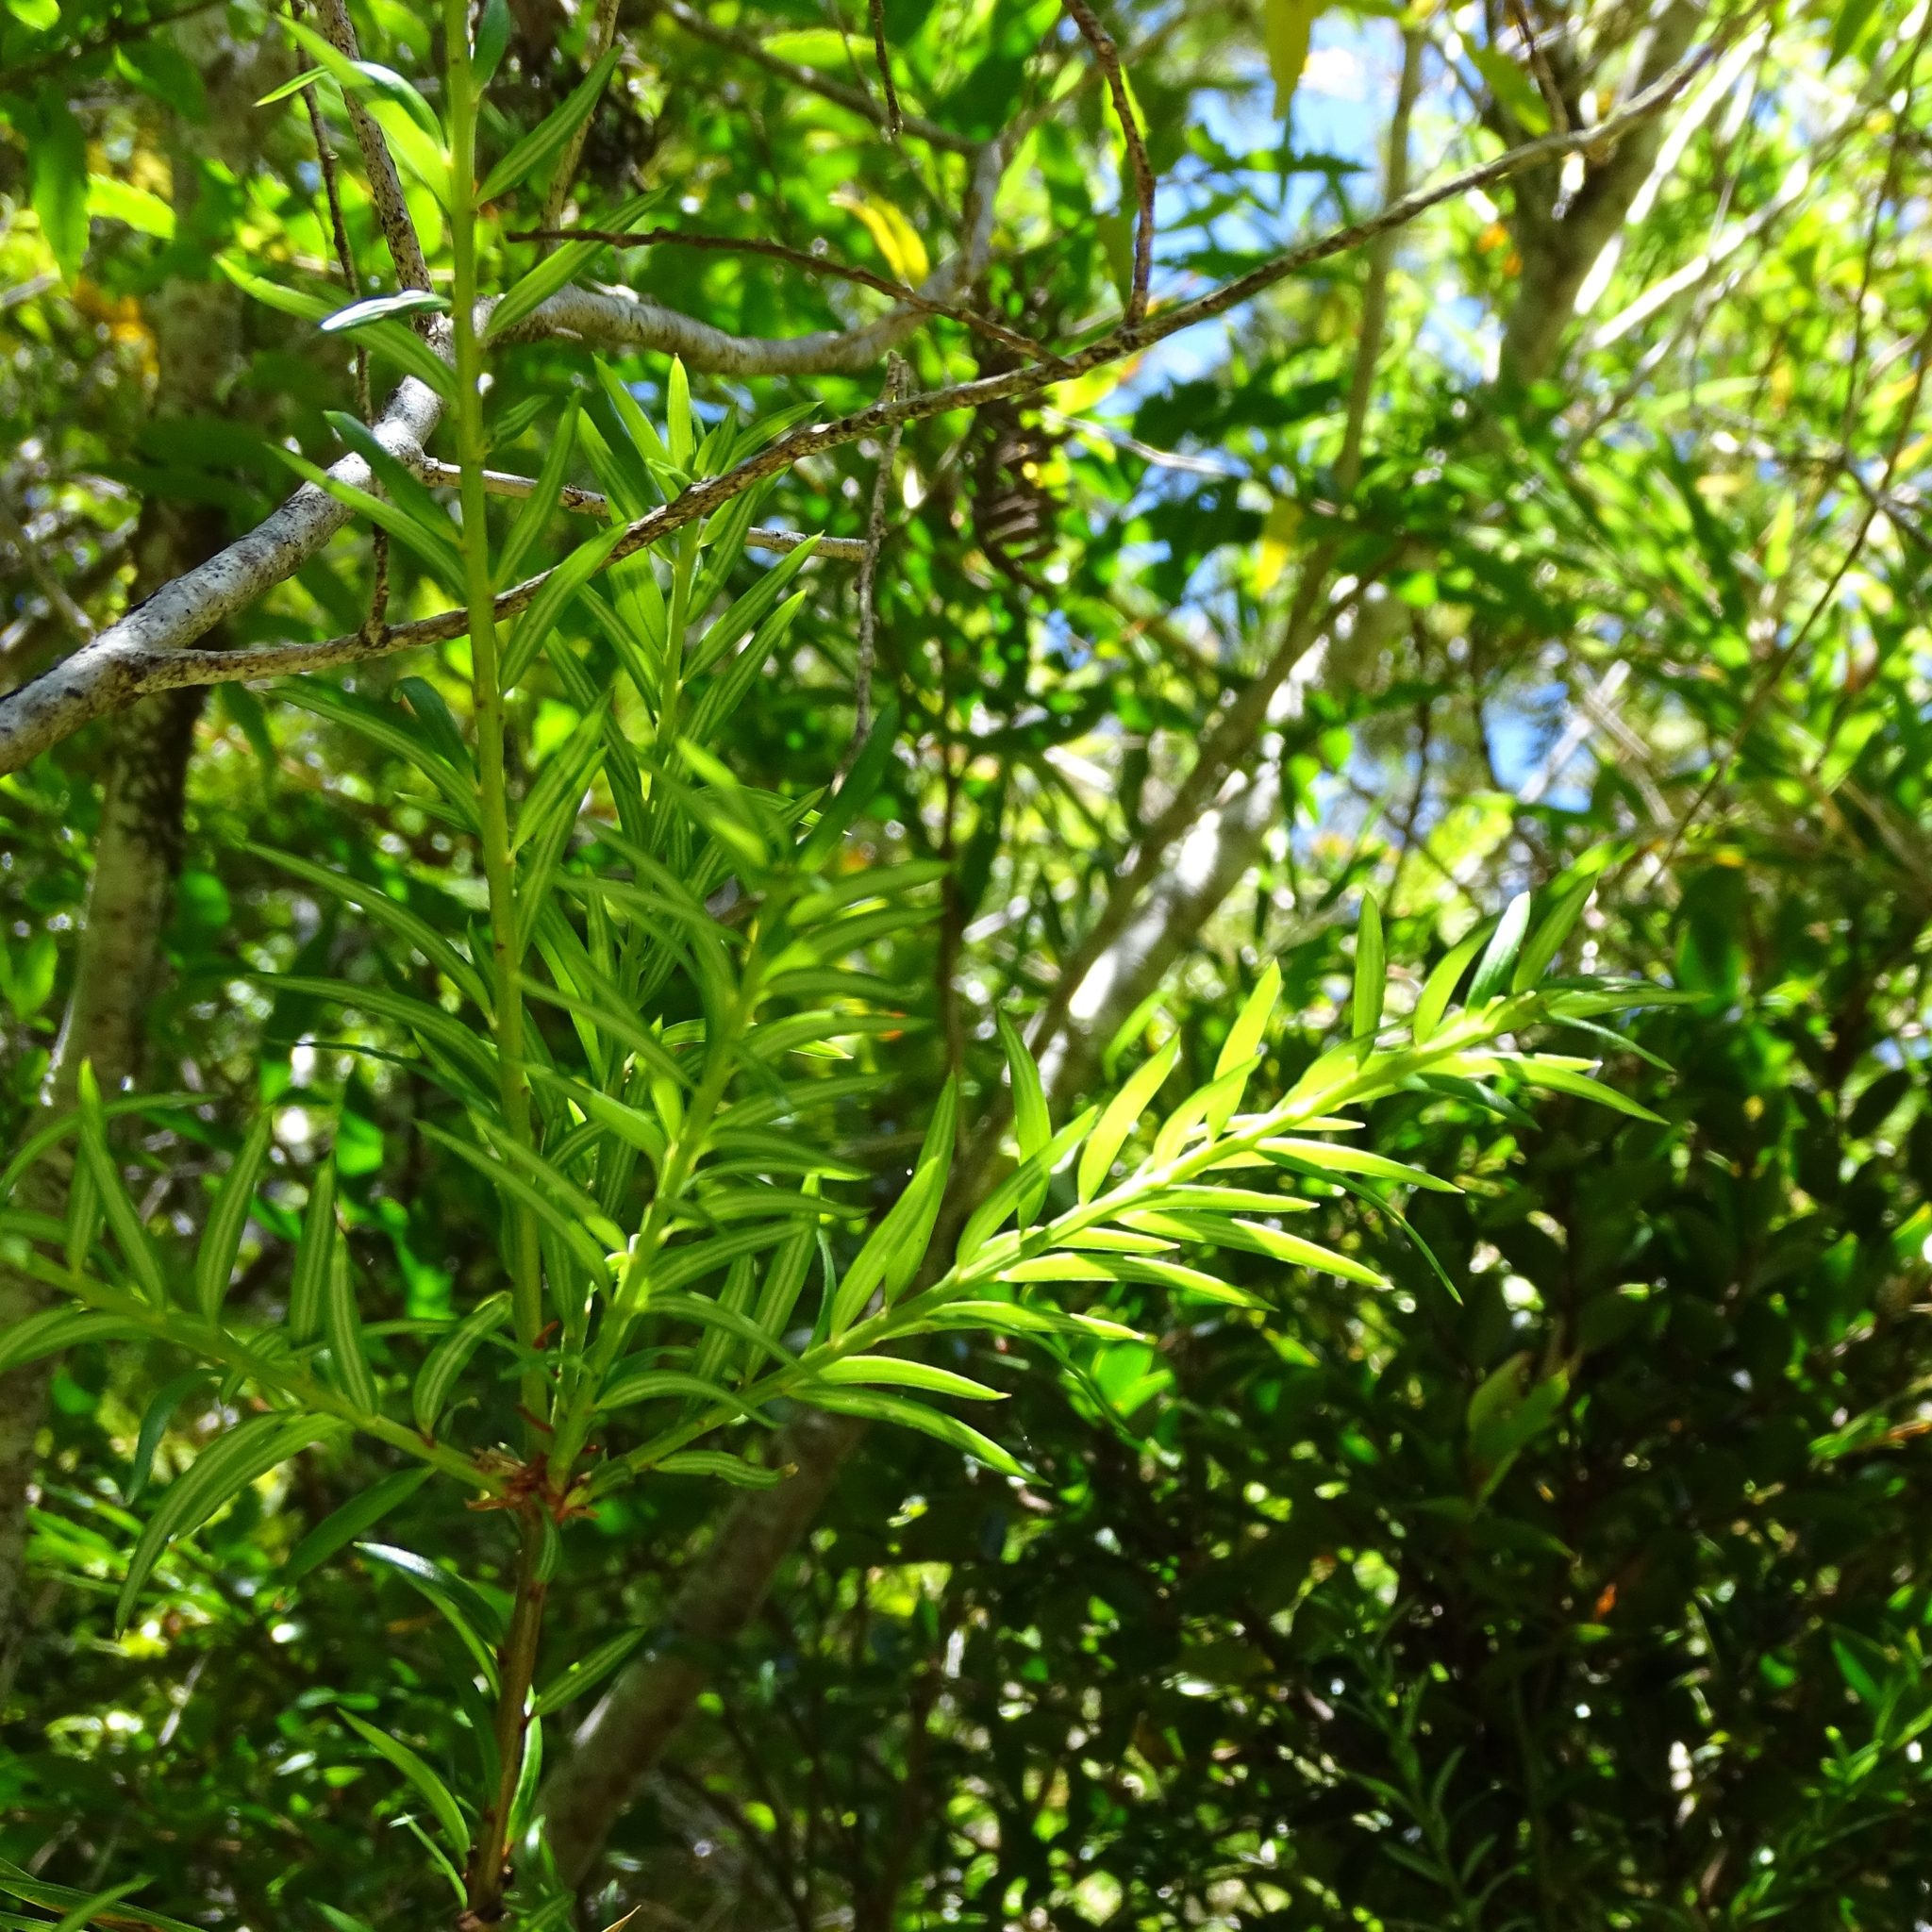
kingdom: Plantae
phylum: Tracheophyta
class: Pinopsida
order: Pinales
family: Podocarpaceae
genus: Saxegothaea
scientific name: Saxegothaea conspicua
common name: Prince albert's yew
